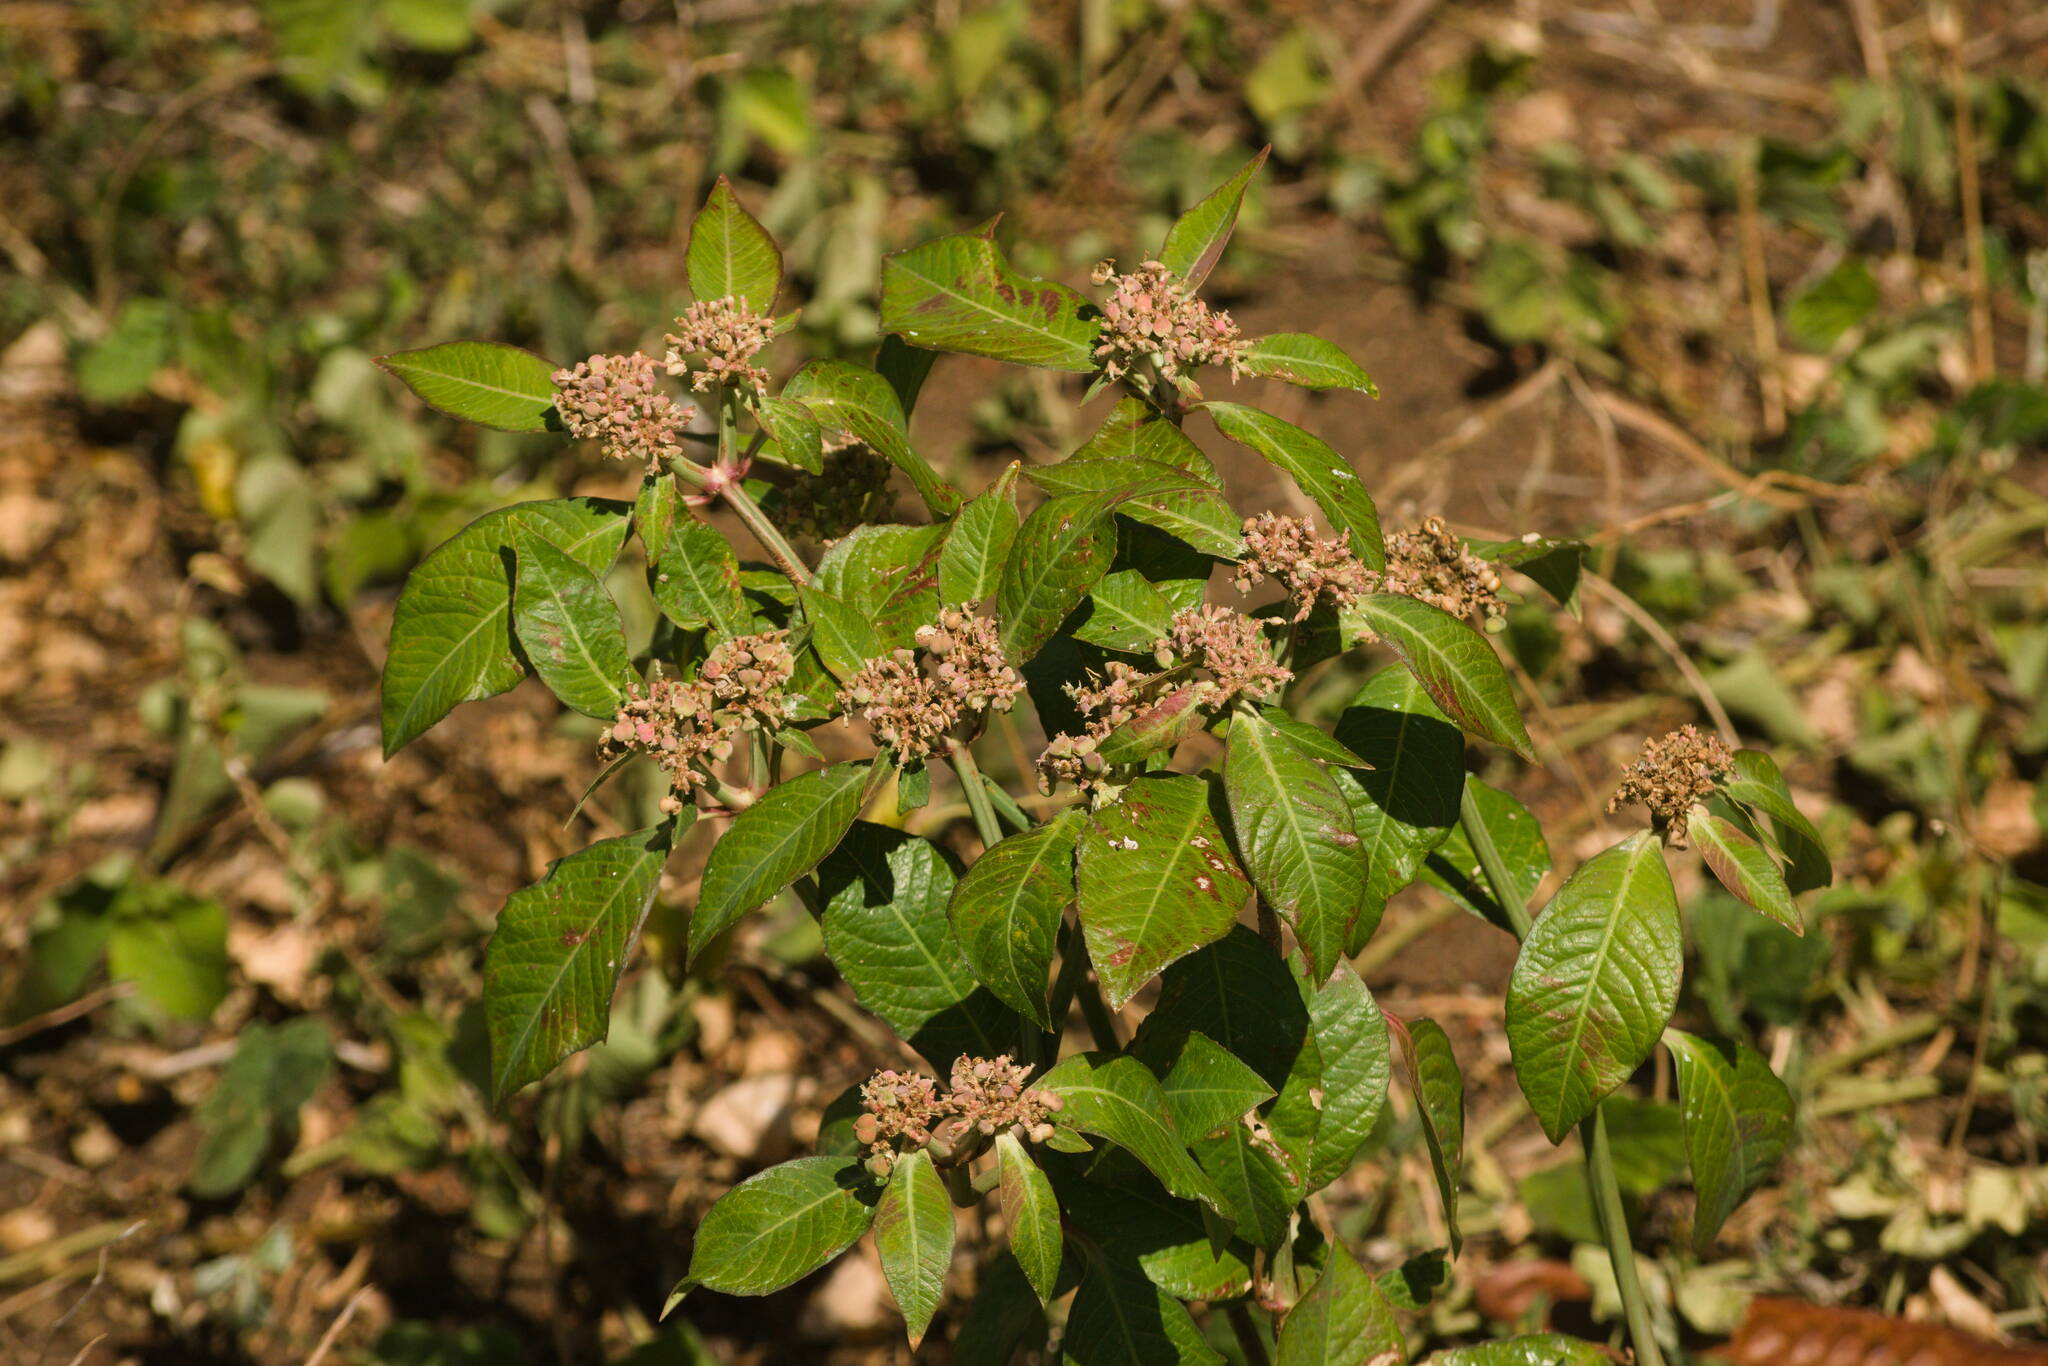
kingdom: Plantae
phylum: Tracheophyta
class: Magnoliopsida
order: Malpighiales
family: Euphorbiaceae
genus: Euphorbia
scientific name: Euphorbia heterophylla
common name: Mexican fireplant
